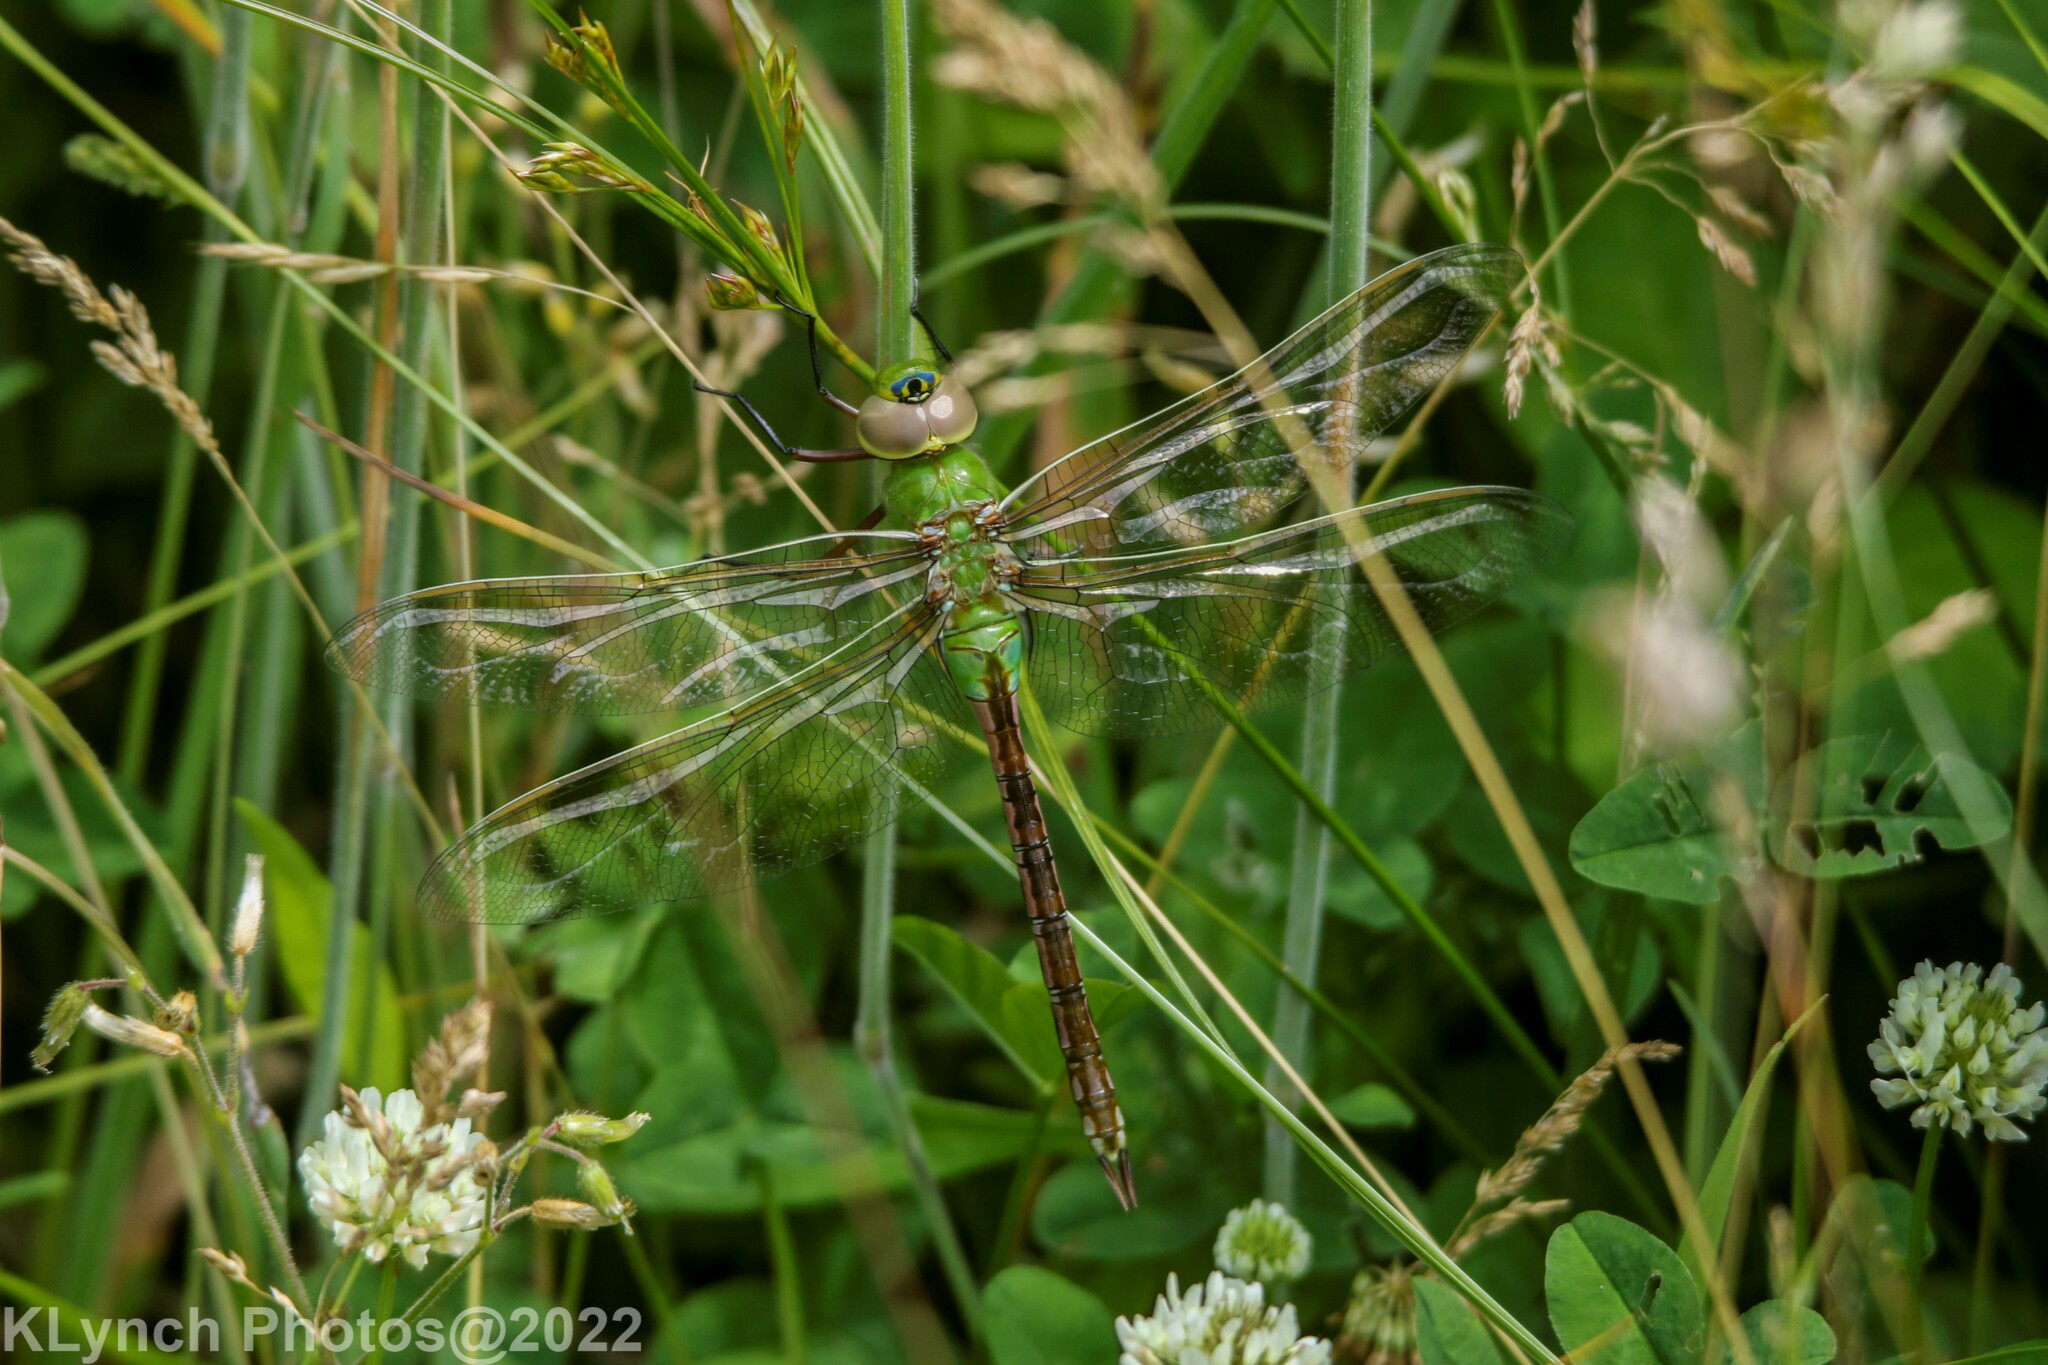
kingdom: Animalia
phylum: Arthropoda
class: Insecta
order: Odonata
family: Aeshnidae
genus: Anax
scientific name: Anax junius
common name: Common green darner
